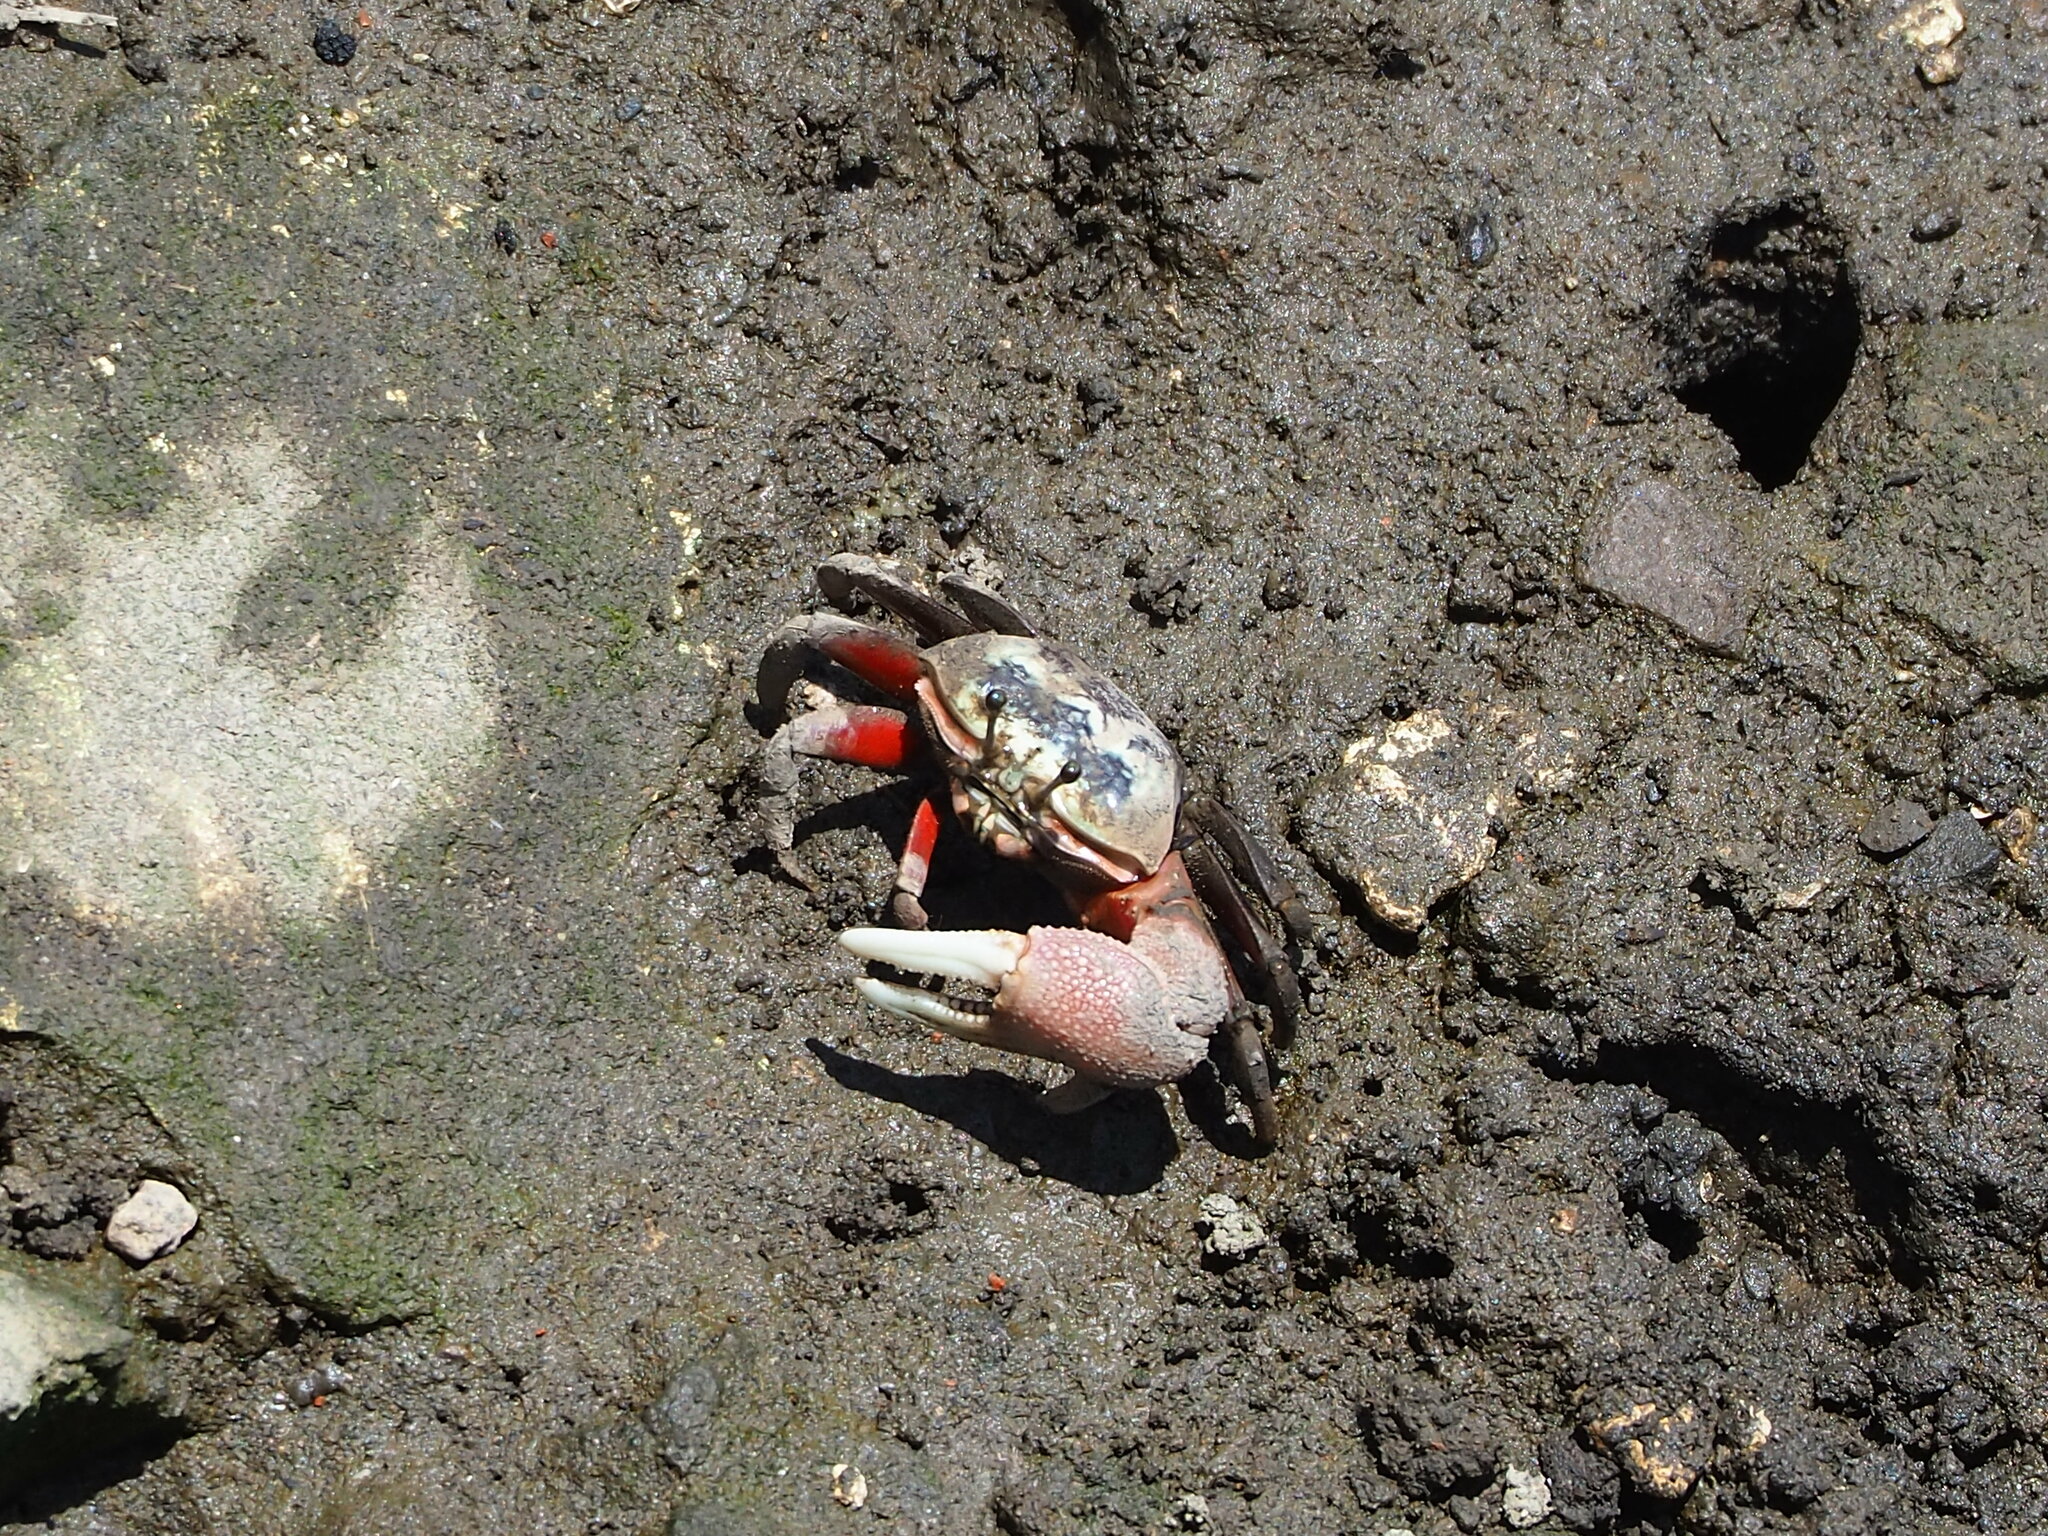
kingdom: Animalia
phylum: Arthropoda
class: Malacostraca
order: Decapoda
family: Ocypodidae
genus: Tubuca
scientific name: Tubuca arcuata
